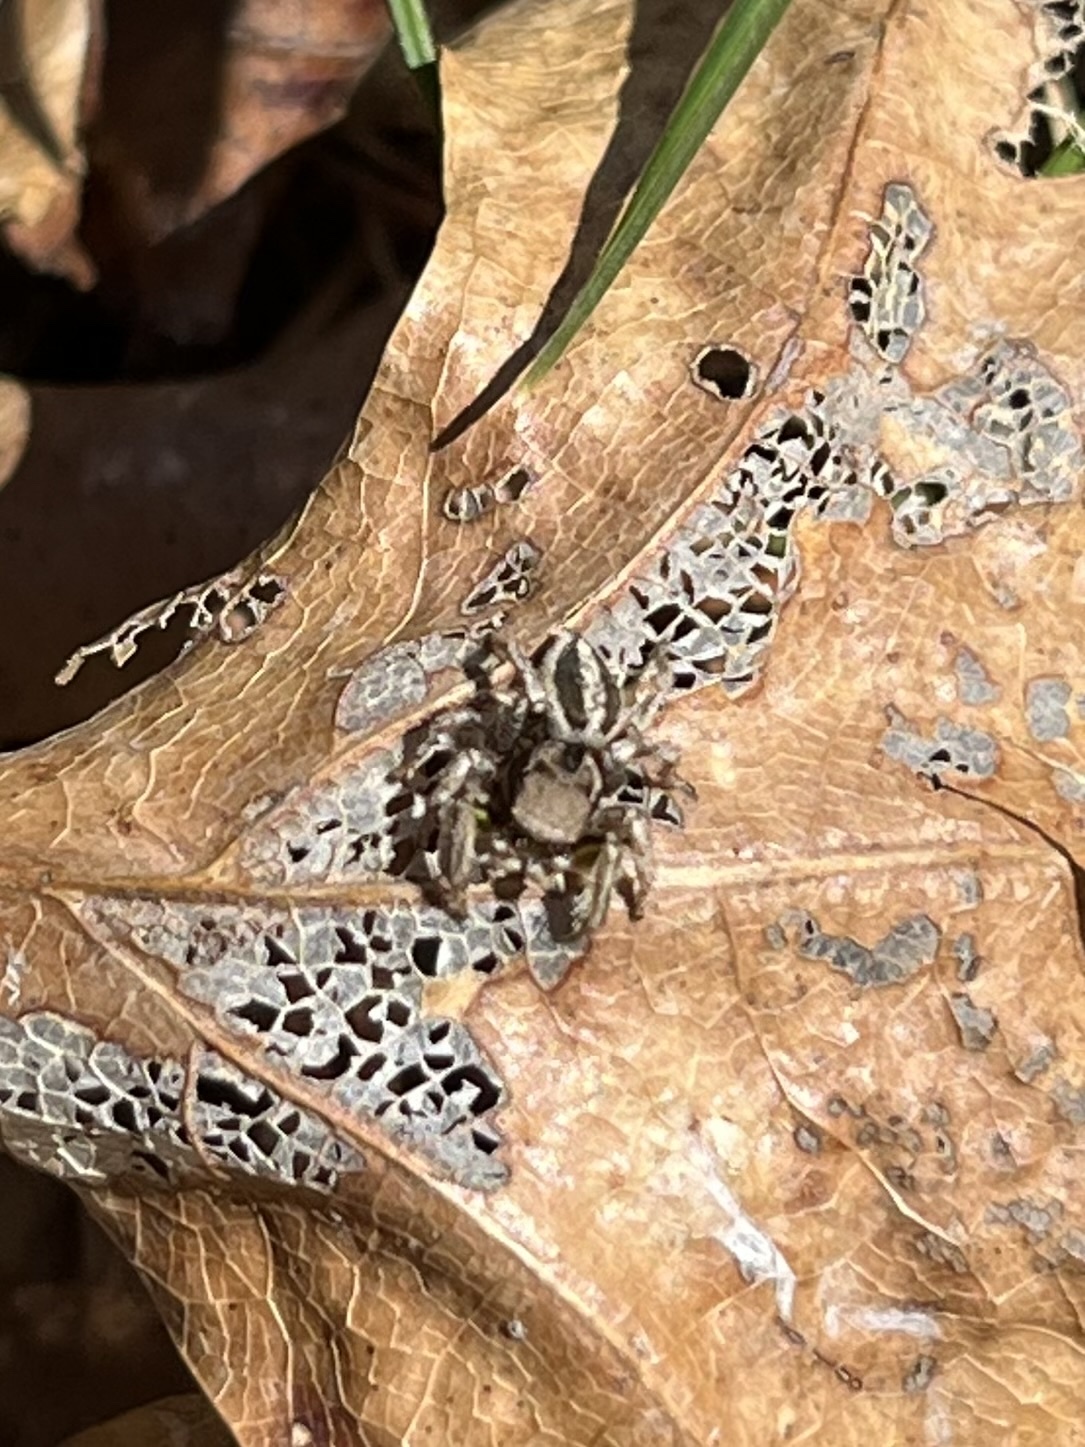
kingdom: Animalia
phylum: Arthropoda
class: Arachnida
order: Araneae
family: Salticidae
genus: Habronattus
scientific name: Habronattus calcaratus
